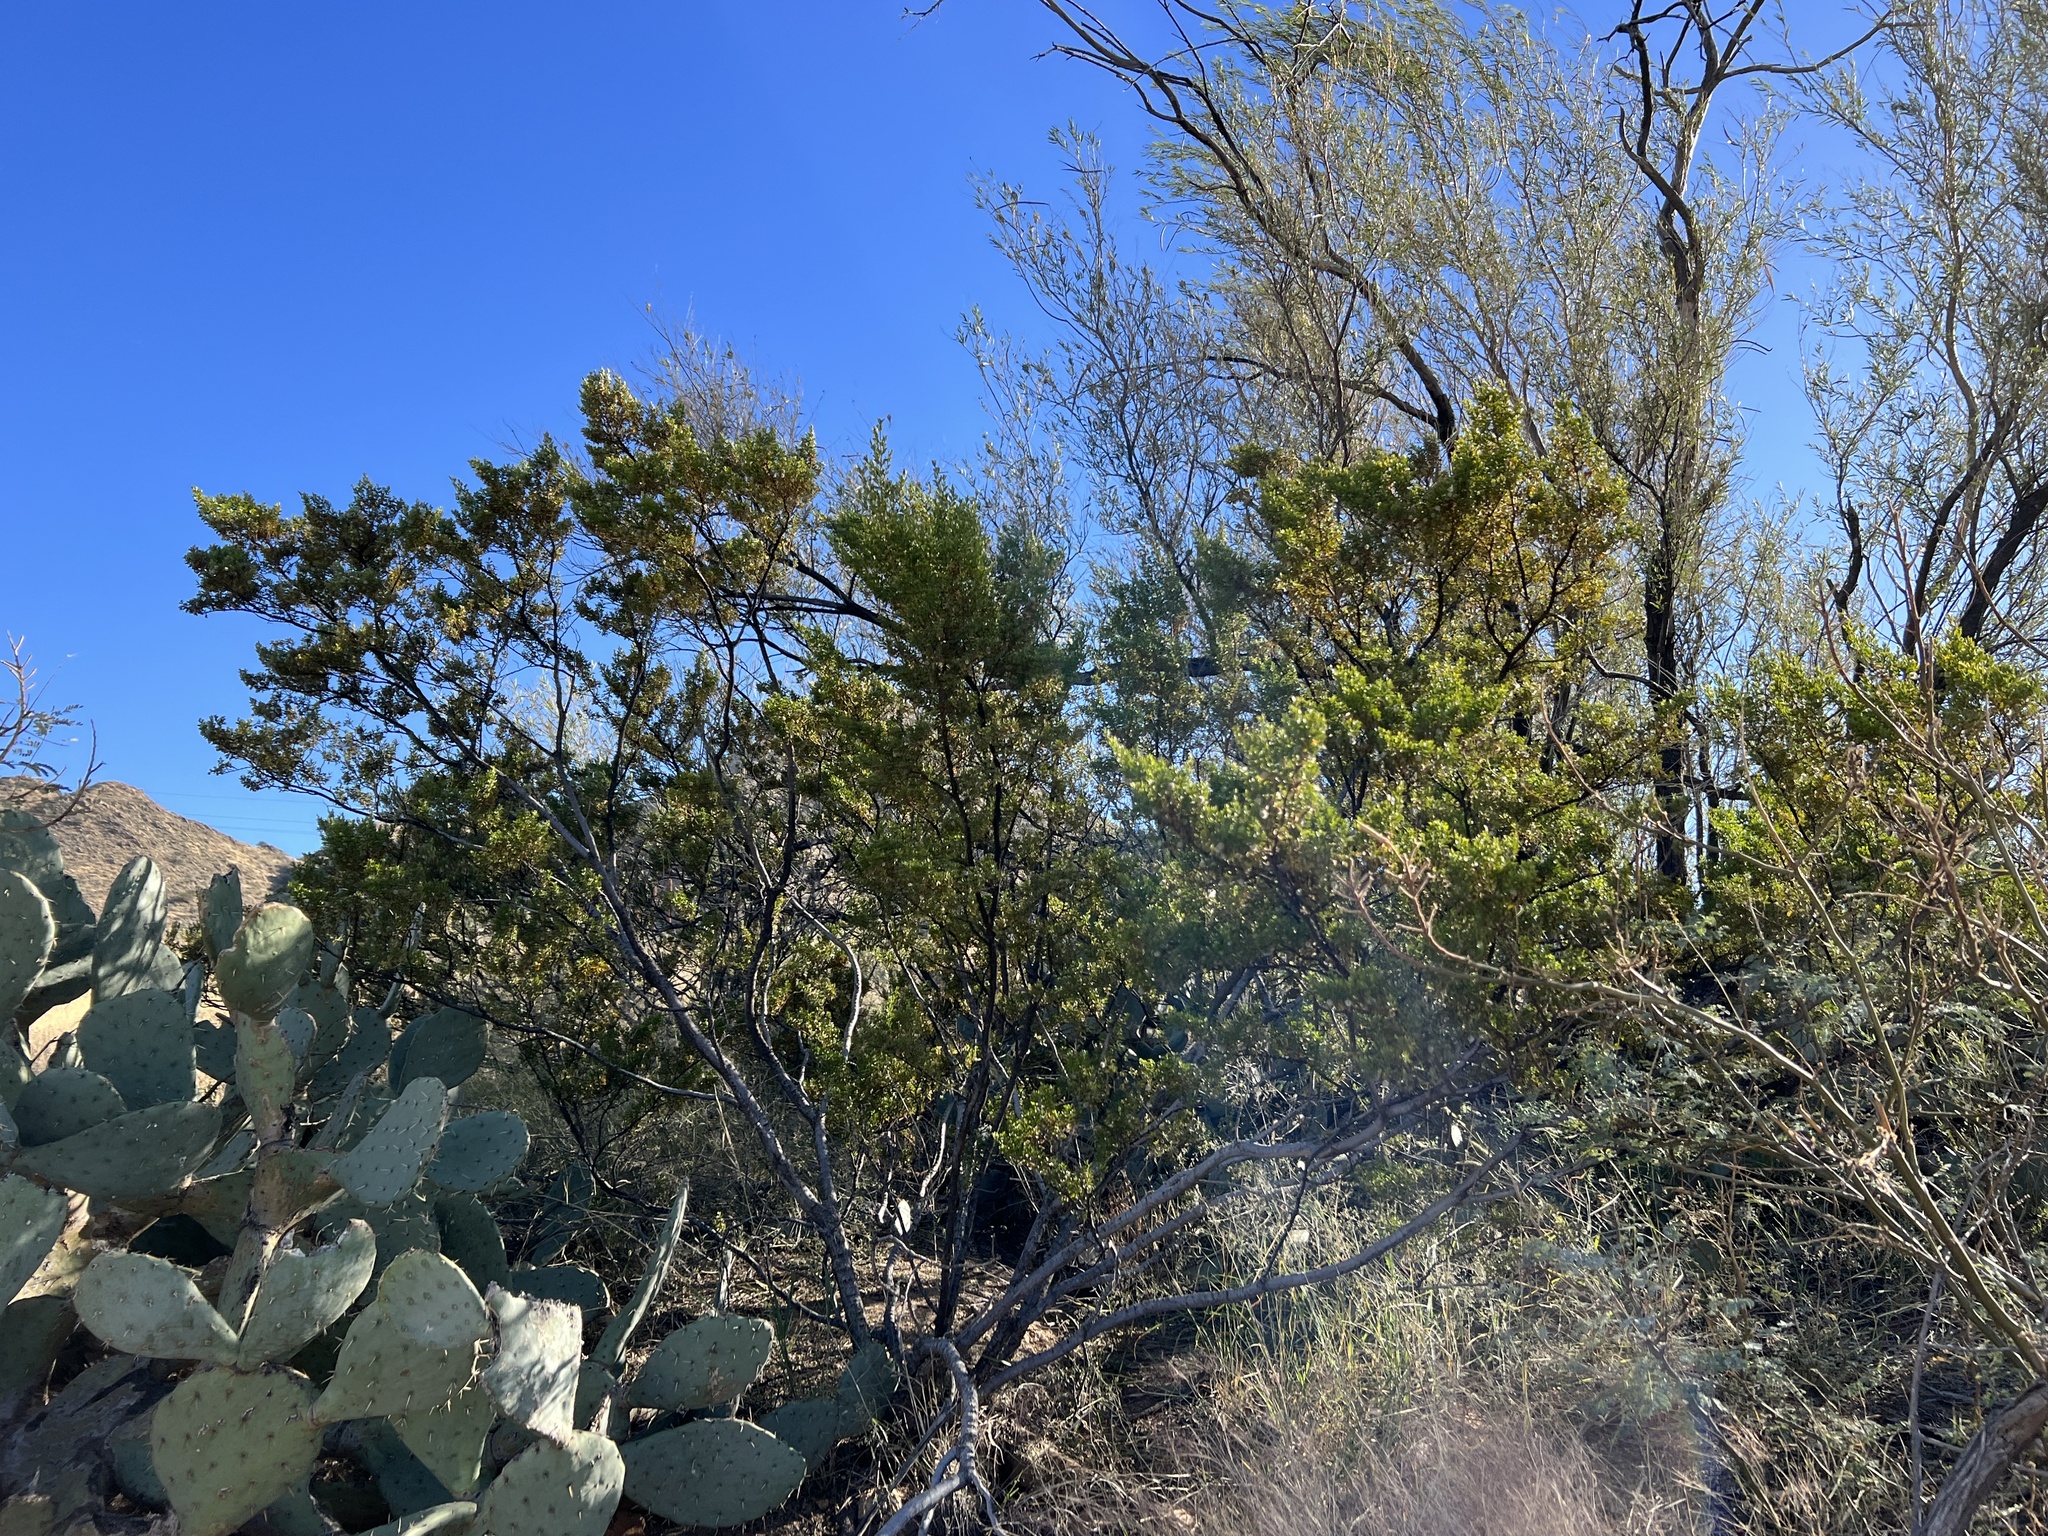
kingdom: Plantae
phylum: Tracheophyta
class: Magnoliopsida
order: Zygophyllales
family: Zygophyllaceae
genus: Larrea
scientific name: Larrea tridentata
